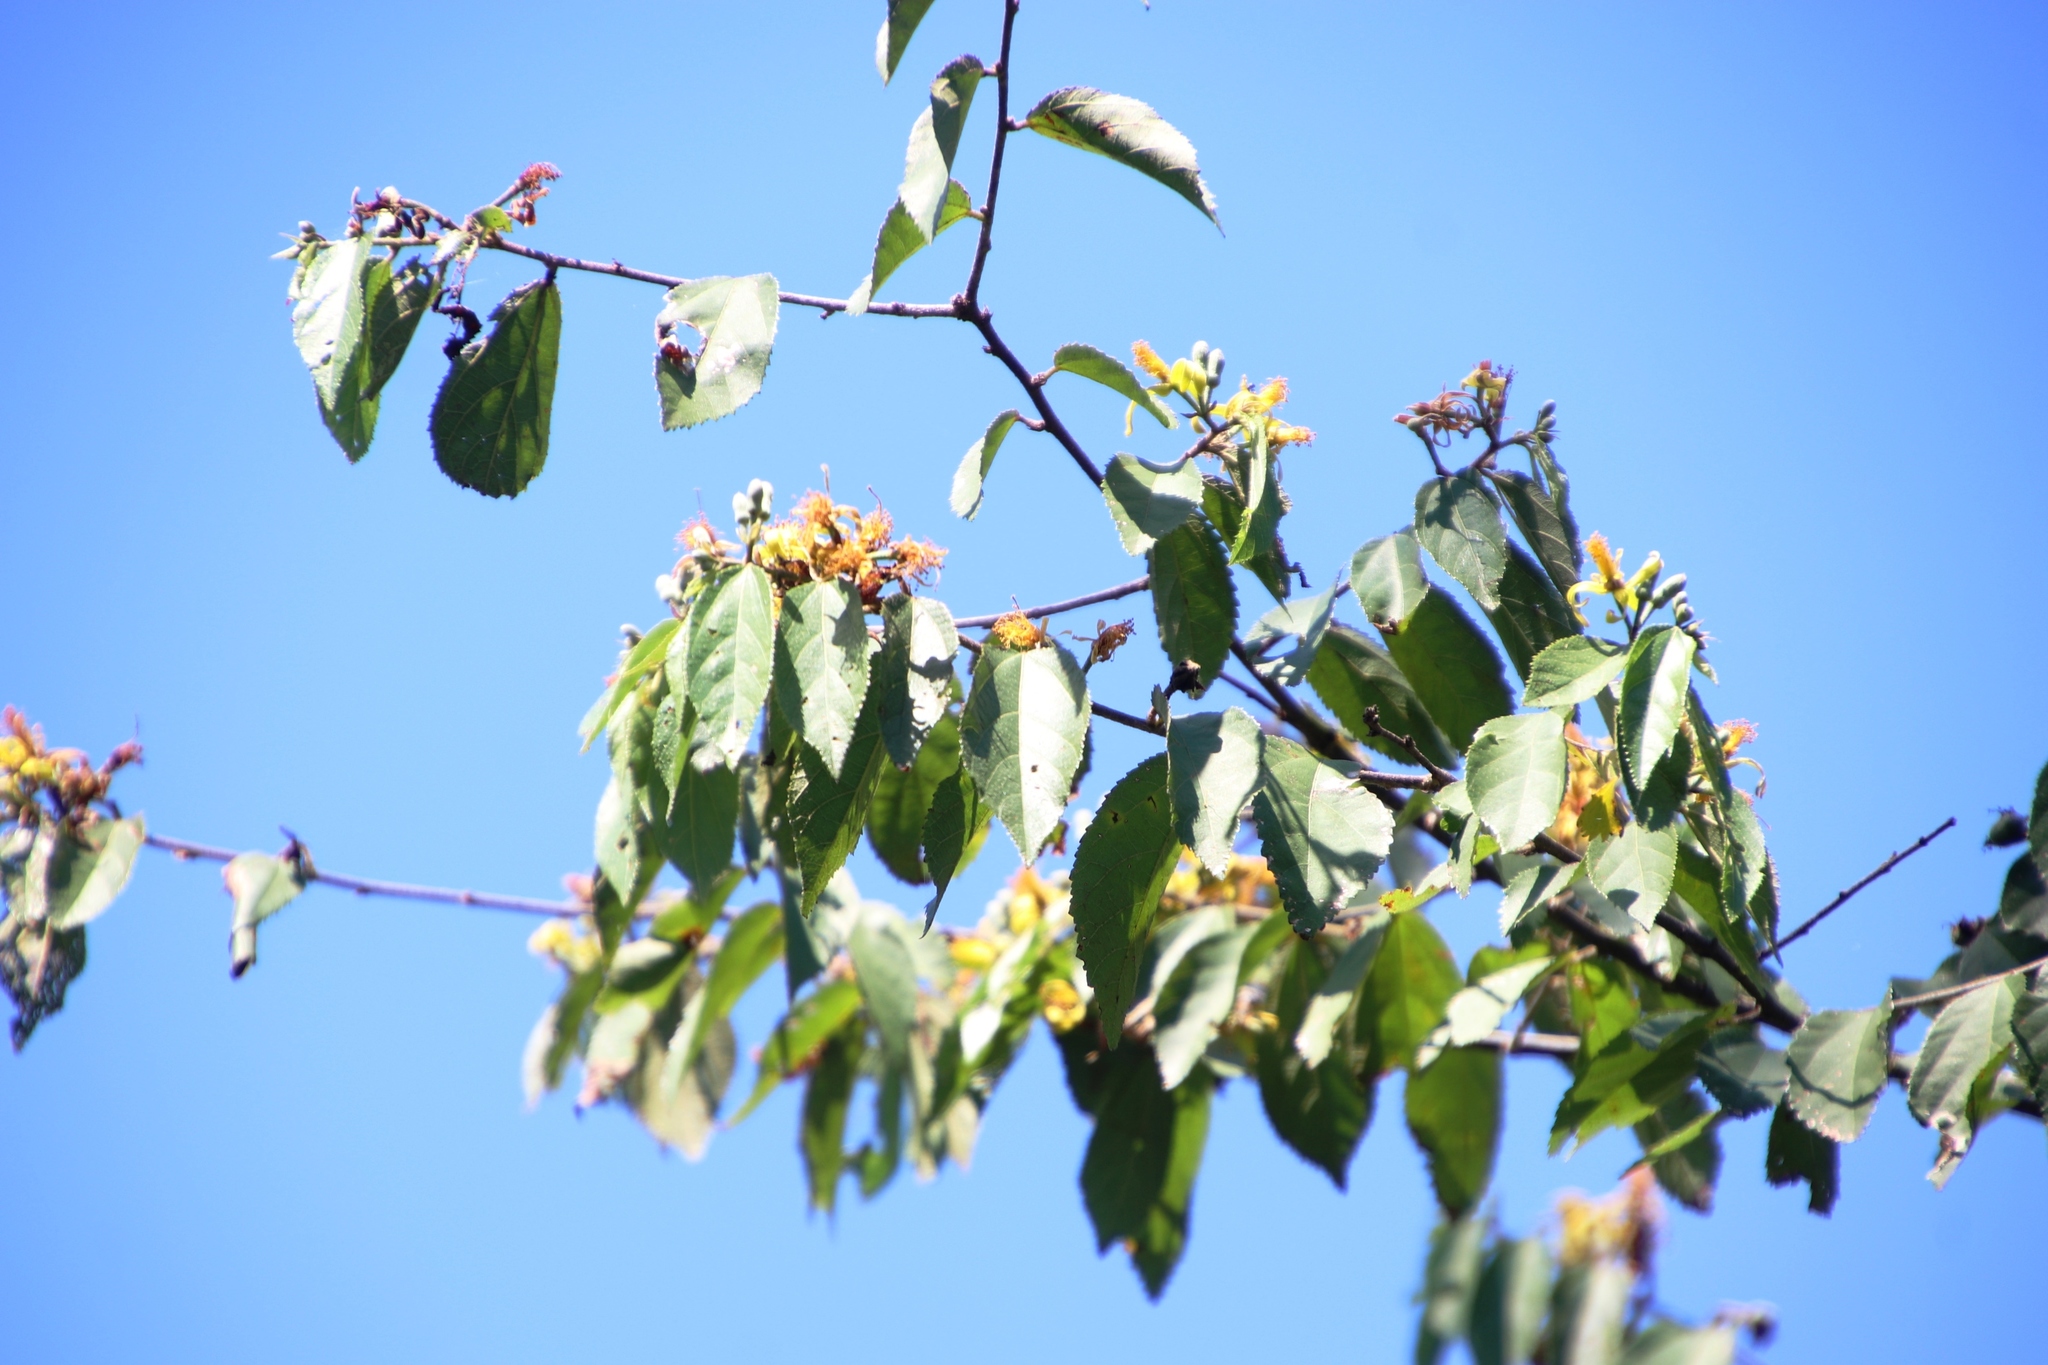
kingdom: Plantae
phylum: Tracheophyta
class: Magnoliopsida
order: Malvales
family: Malvaceae
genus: Grewia
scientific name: Grewia flavescens
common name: Sandpaper raisin
